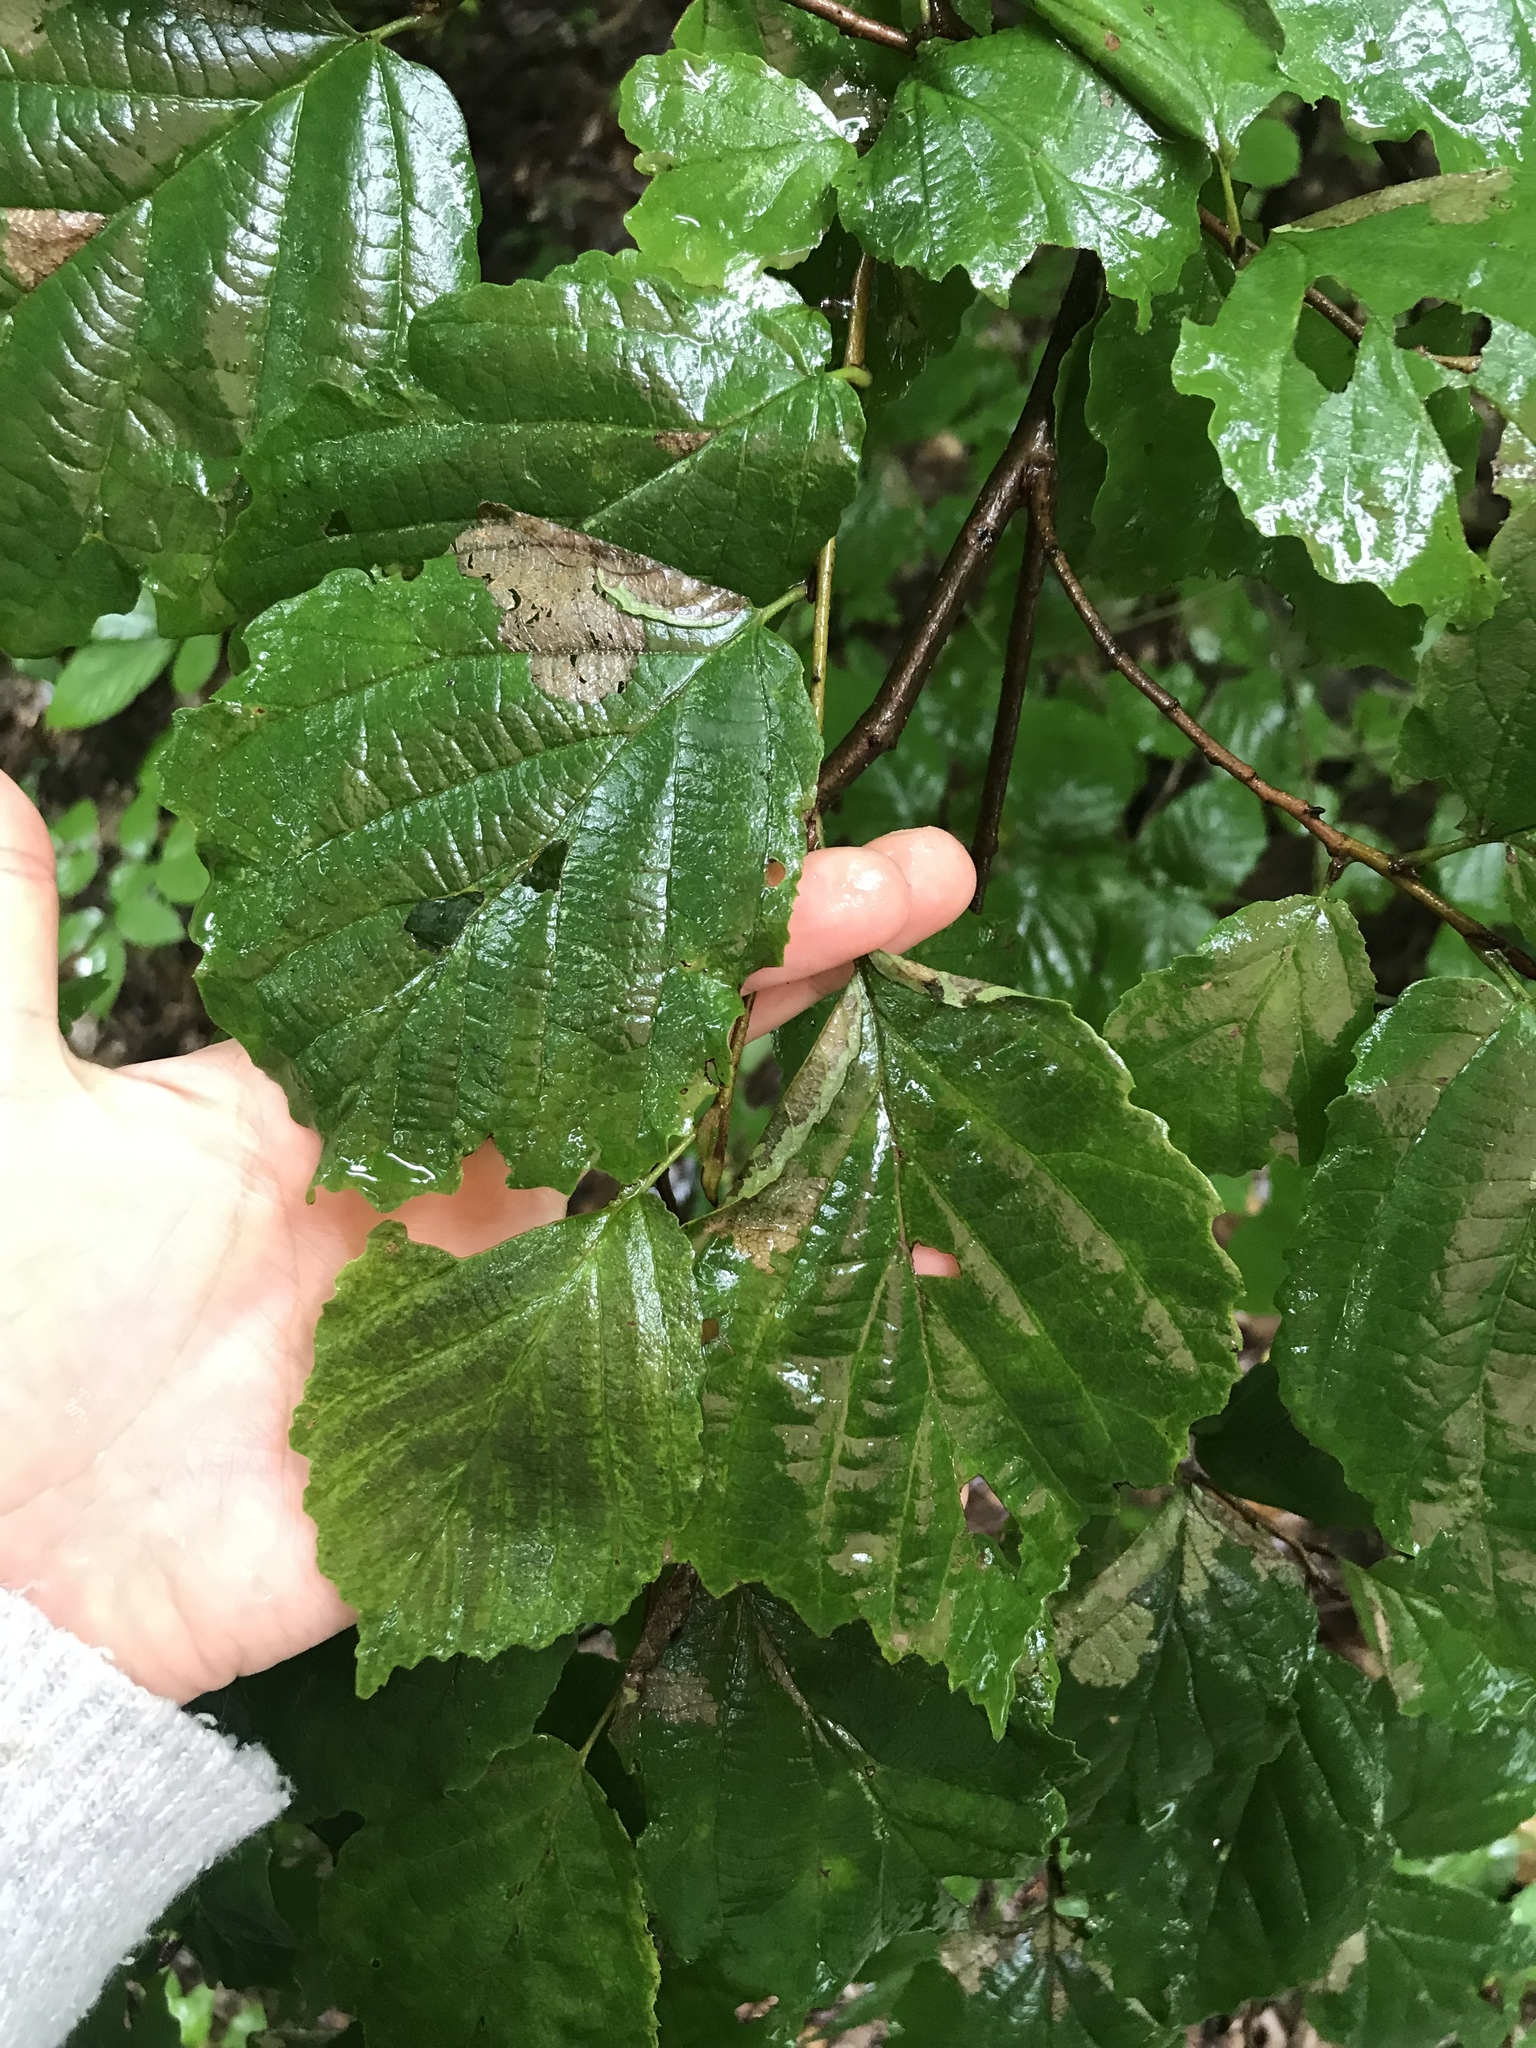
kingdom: Plantae
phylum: Tracheophyta
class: Magnoliopsida
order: Saxifragales
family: Hamamelidaceae
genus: Hamamelis
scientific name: Hamamelis virginiana
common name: Witch-hazel
